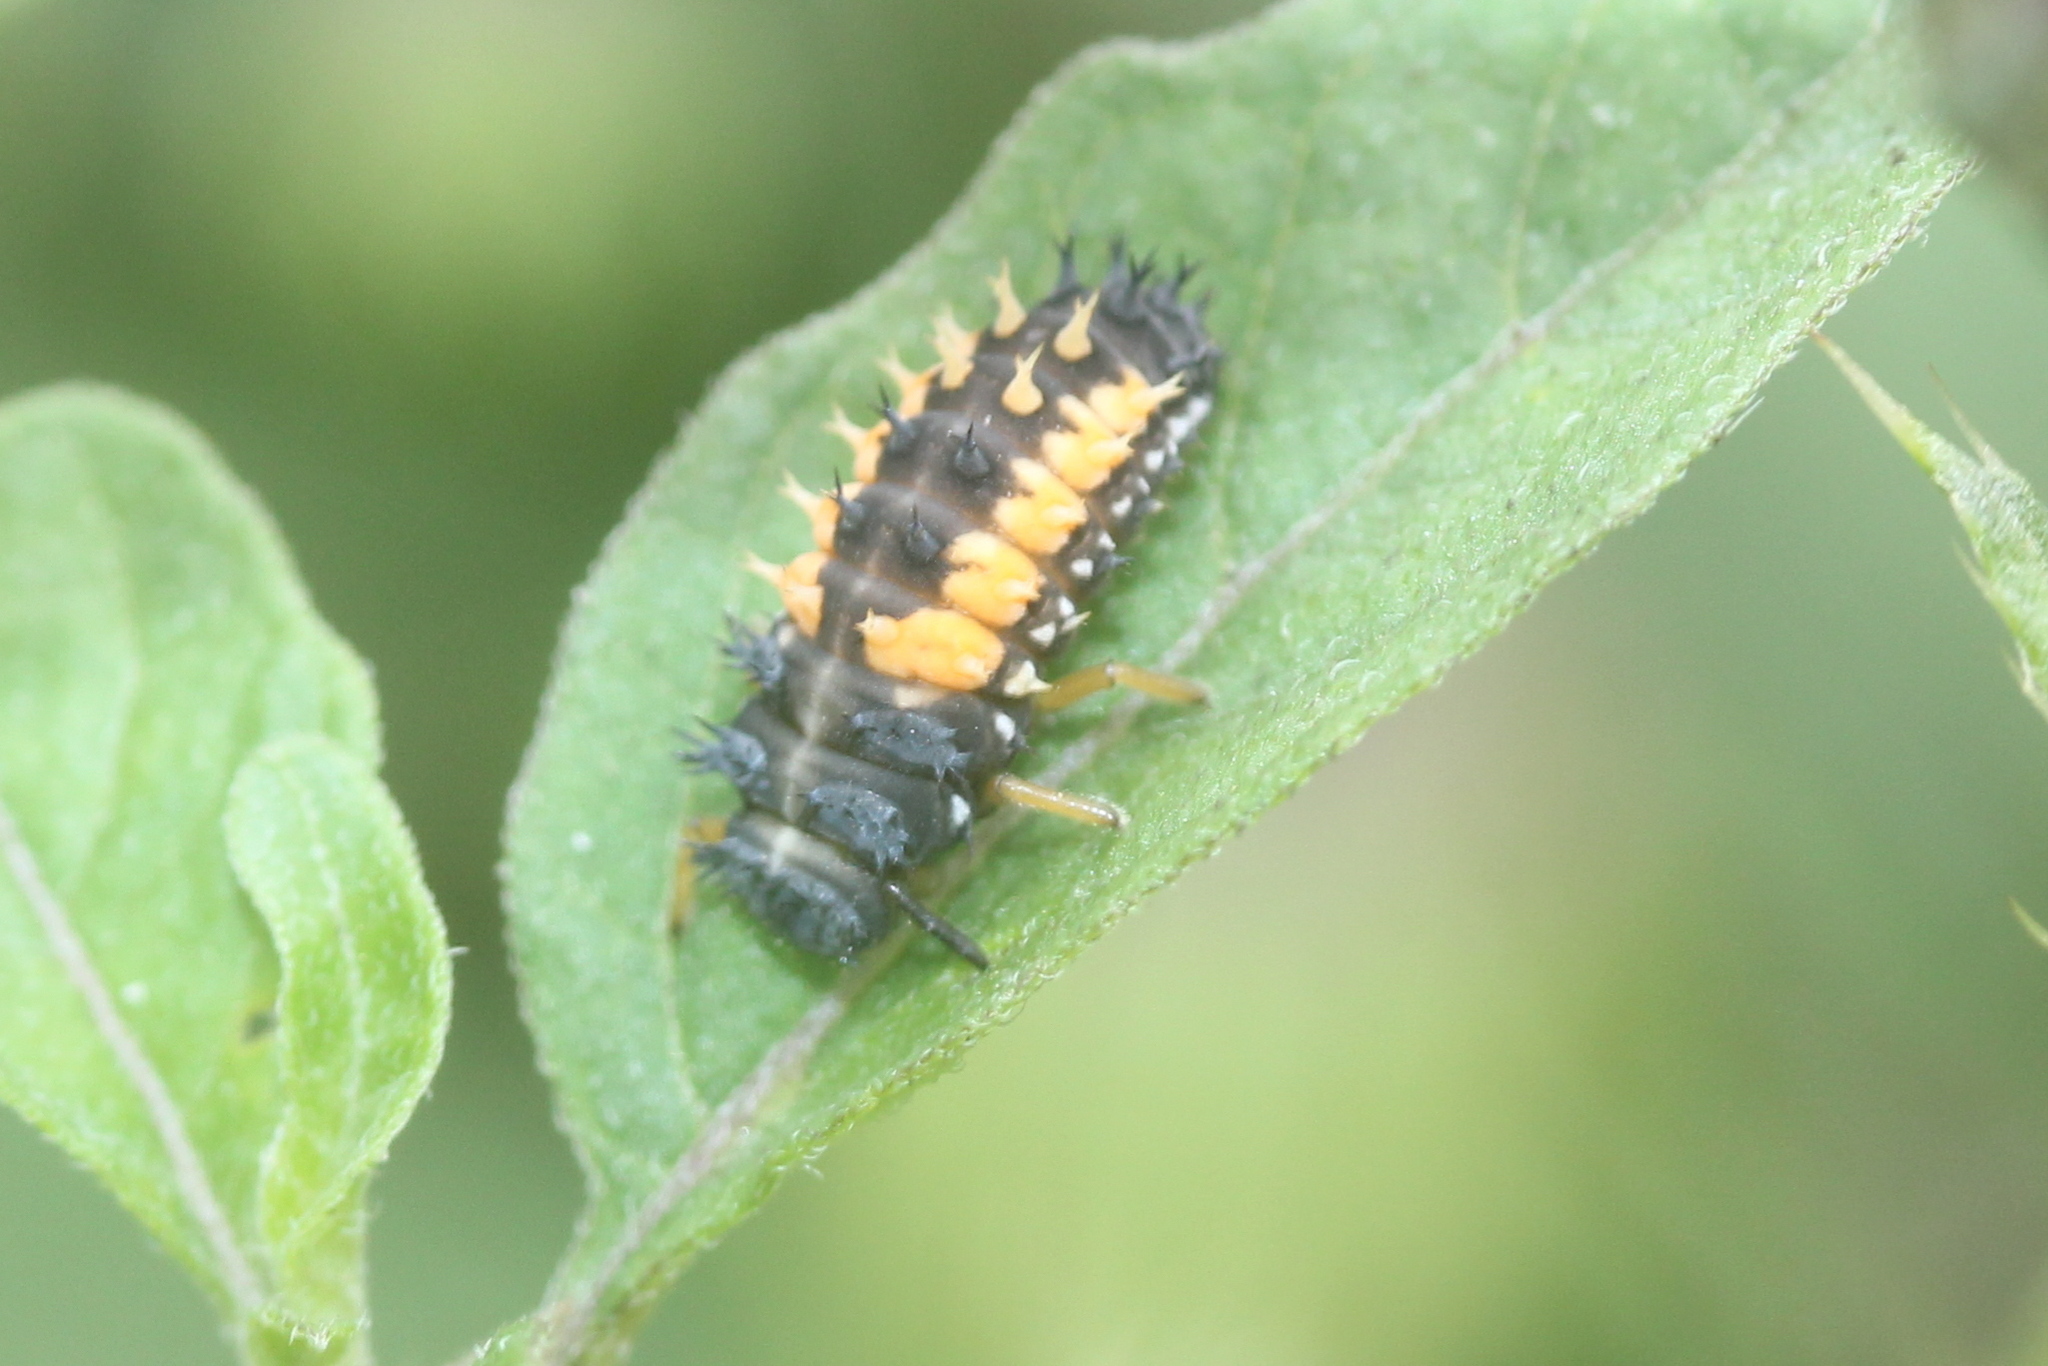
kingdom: Animalia
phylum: Arthropoda
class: Insecta
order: Coleoptera
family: Coccinellidae
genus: Harmonia
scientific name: Harmonia axyridis
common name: Harlequin ladybird
